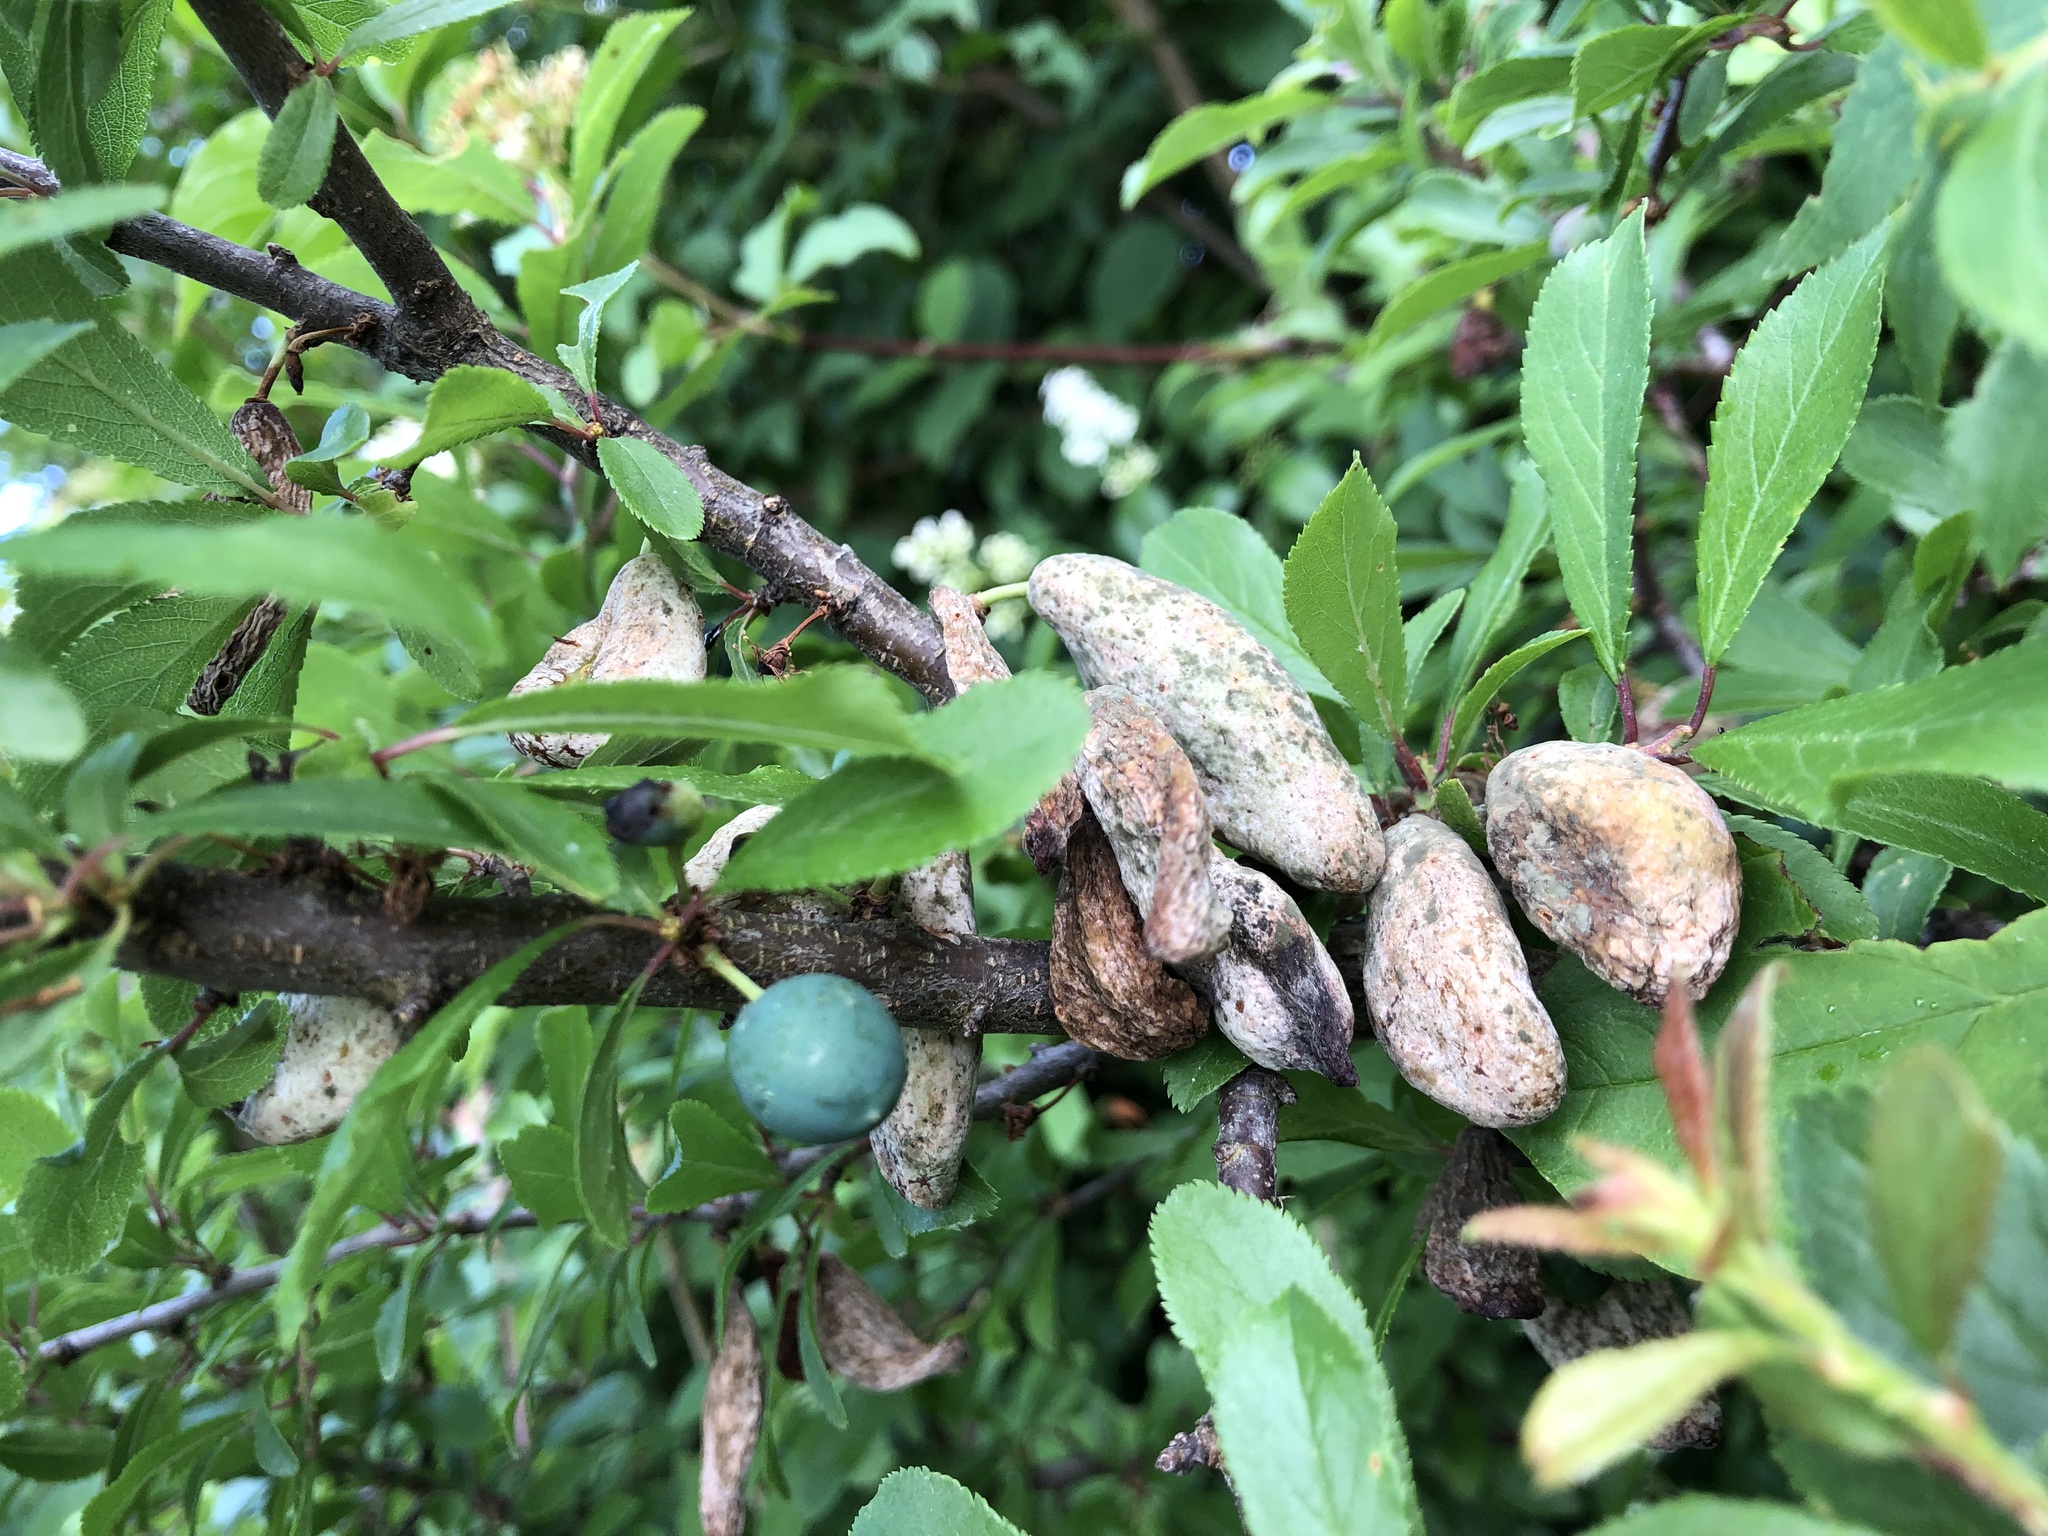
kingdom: Fungi
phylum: Ascomycota
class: Taphrinomycetes
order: Taphrinales
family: Taphrinaceae
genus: Taphrina
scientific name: Taphrina pruni
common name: Pocket plum
